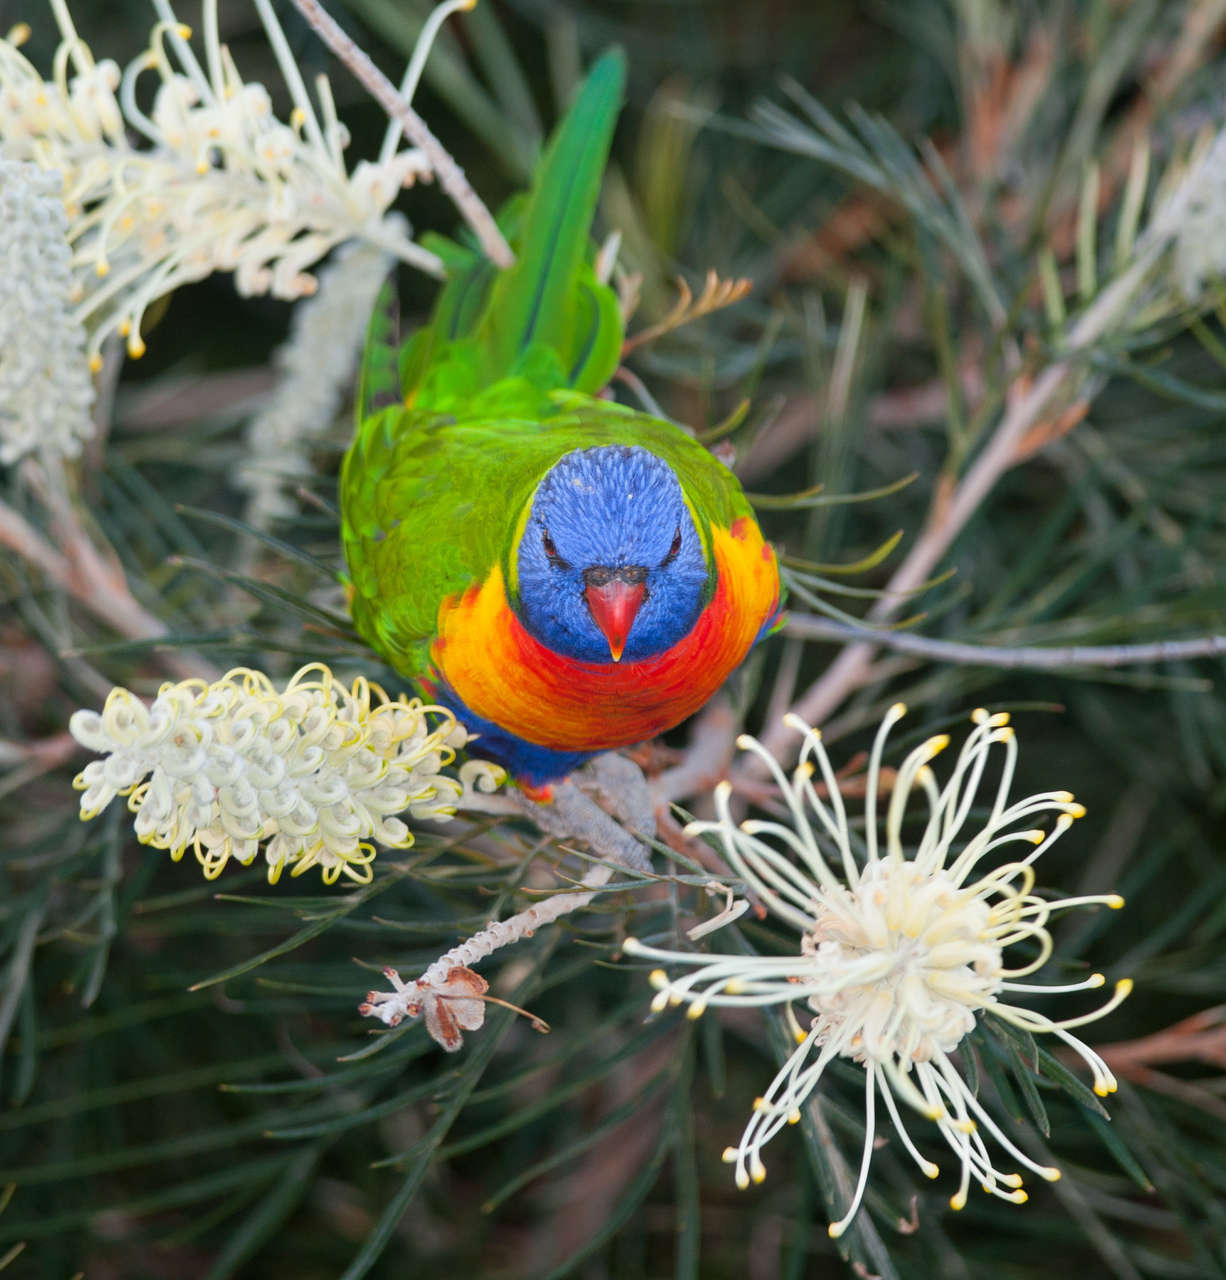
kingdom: Animalia
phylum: Chordata
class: Aves
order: Psittaciformes
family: Psittacidae
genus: Trichoglossus
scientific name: Trichoglossus haematodus
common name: Coconut lorikeet
